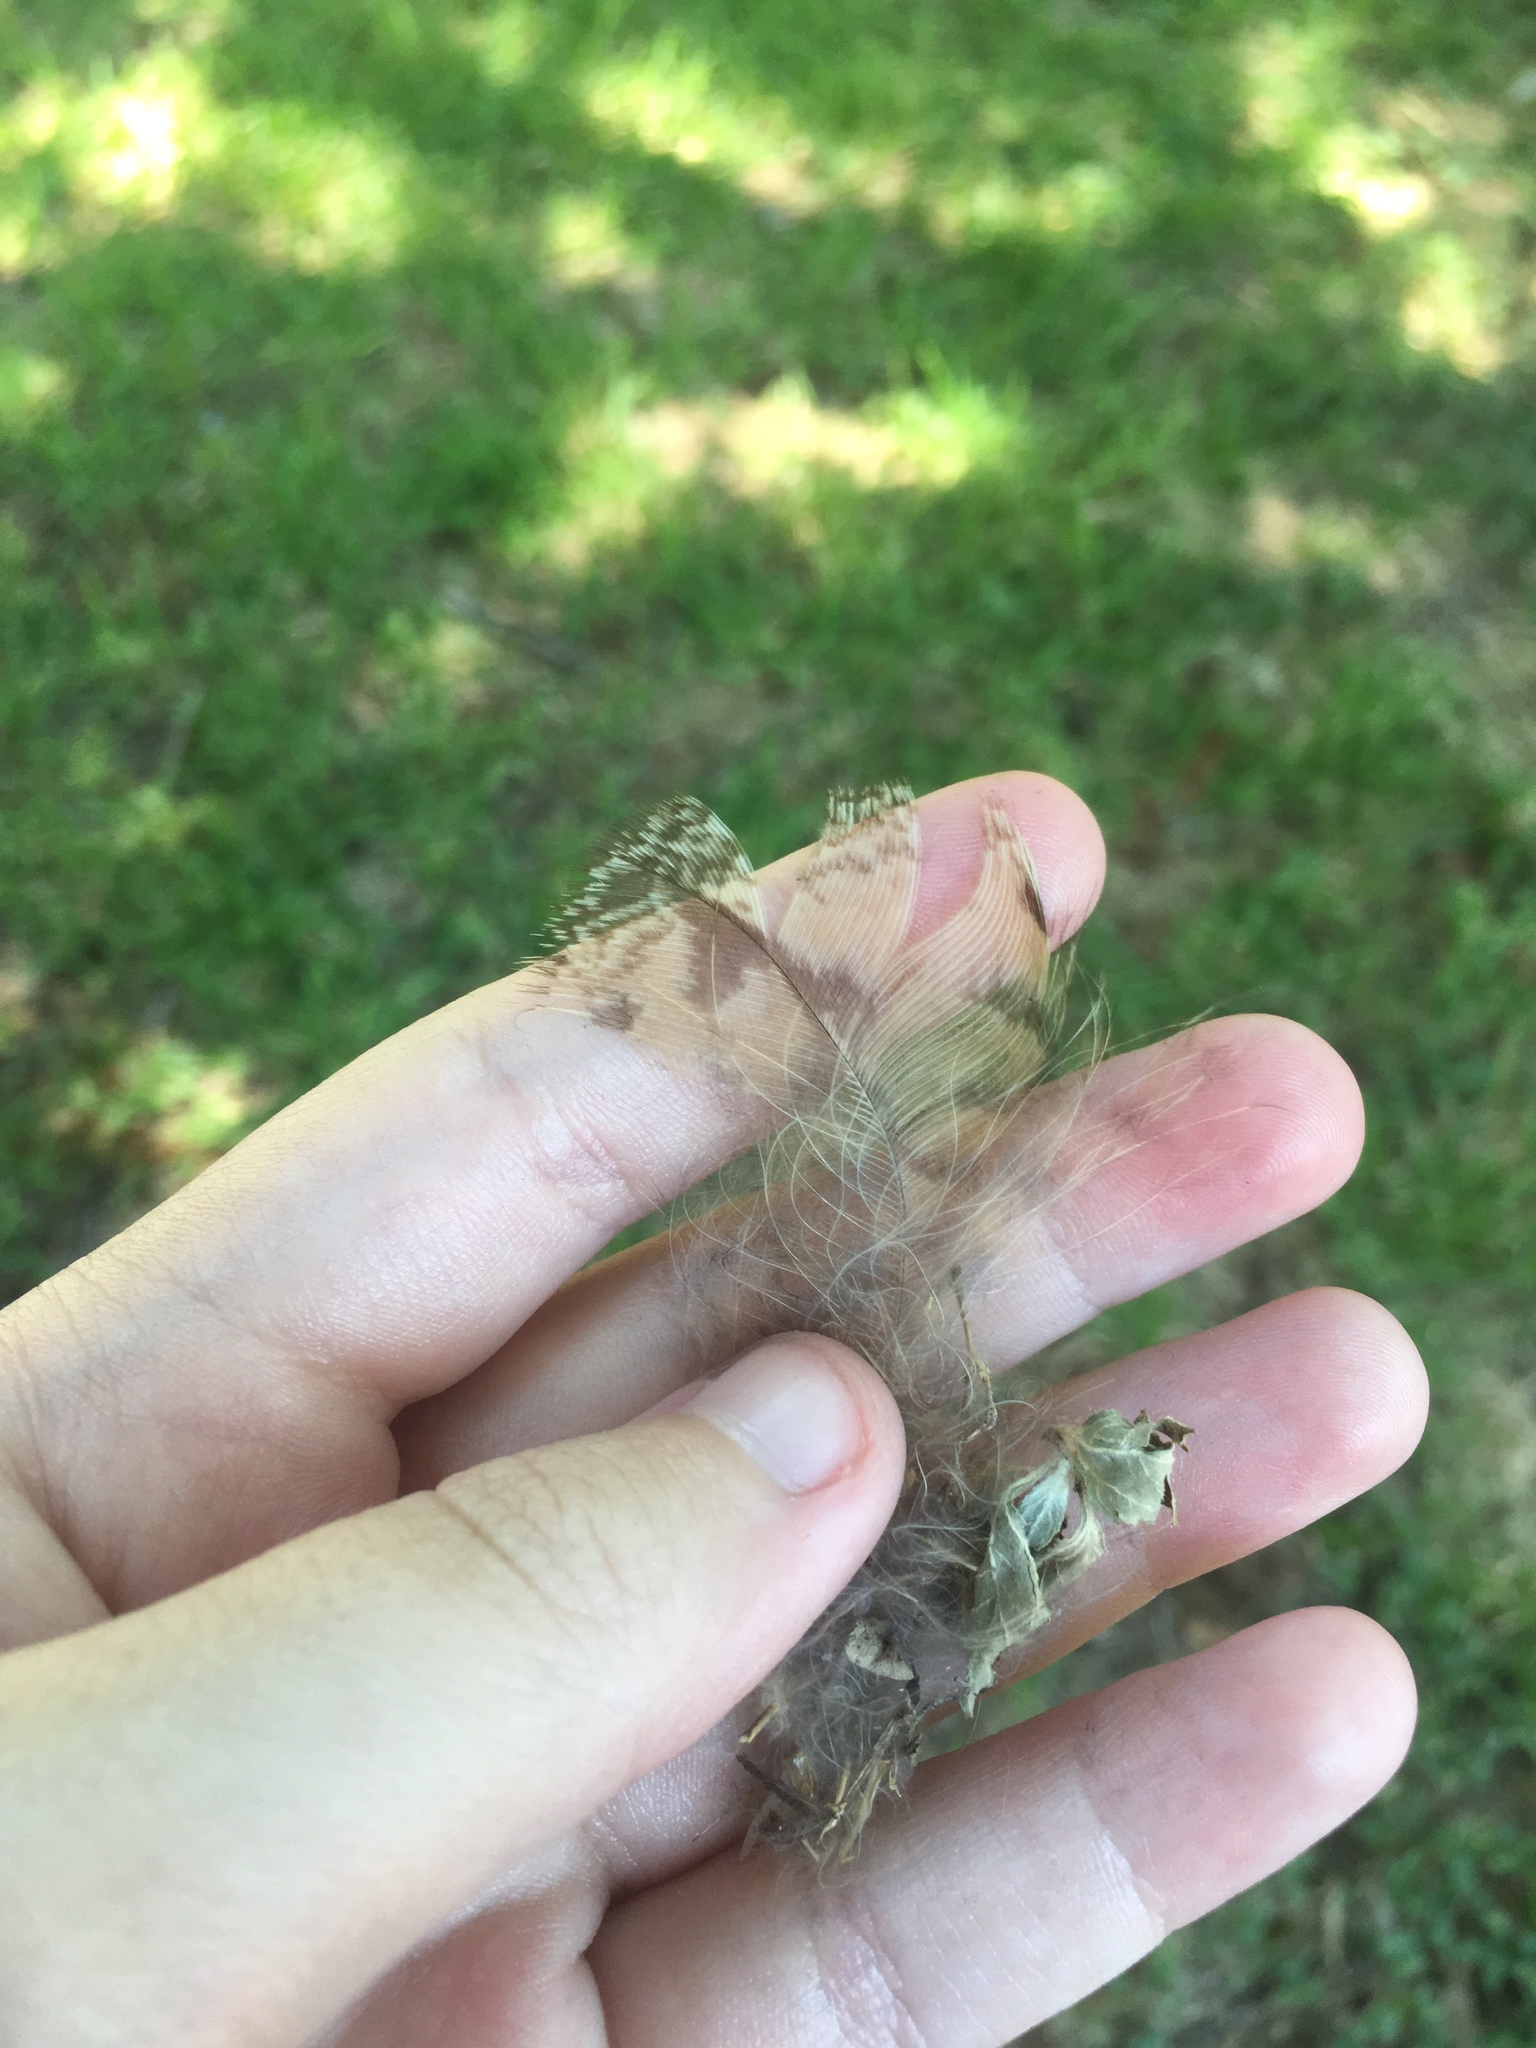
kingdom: Animalia
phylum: Chordata
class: Aves
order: Strigiformes
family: Strigidae
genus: Bubo
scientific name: Bubo virginianus
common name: Great horned owl
